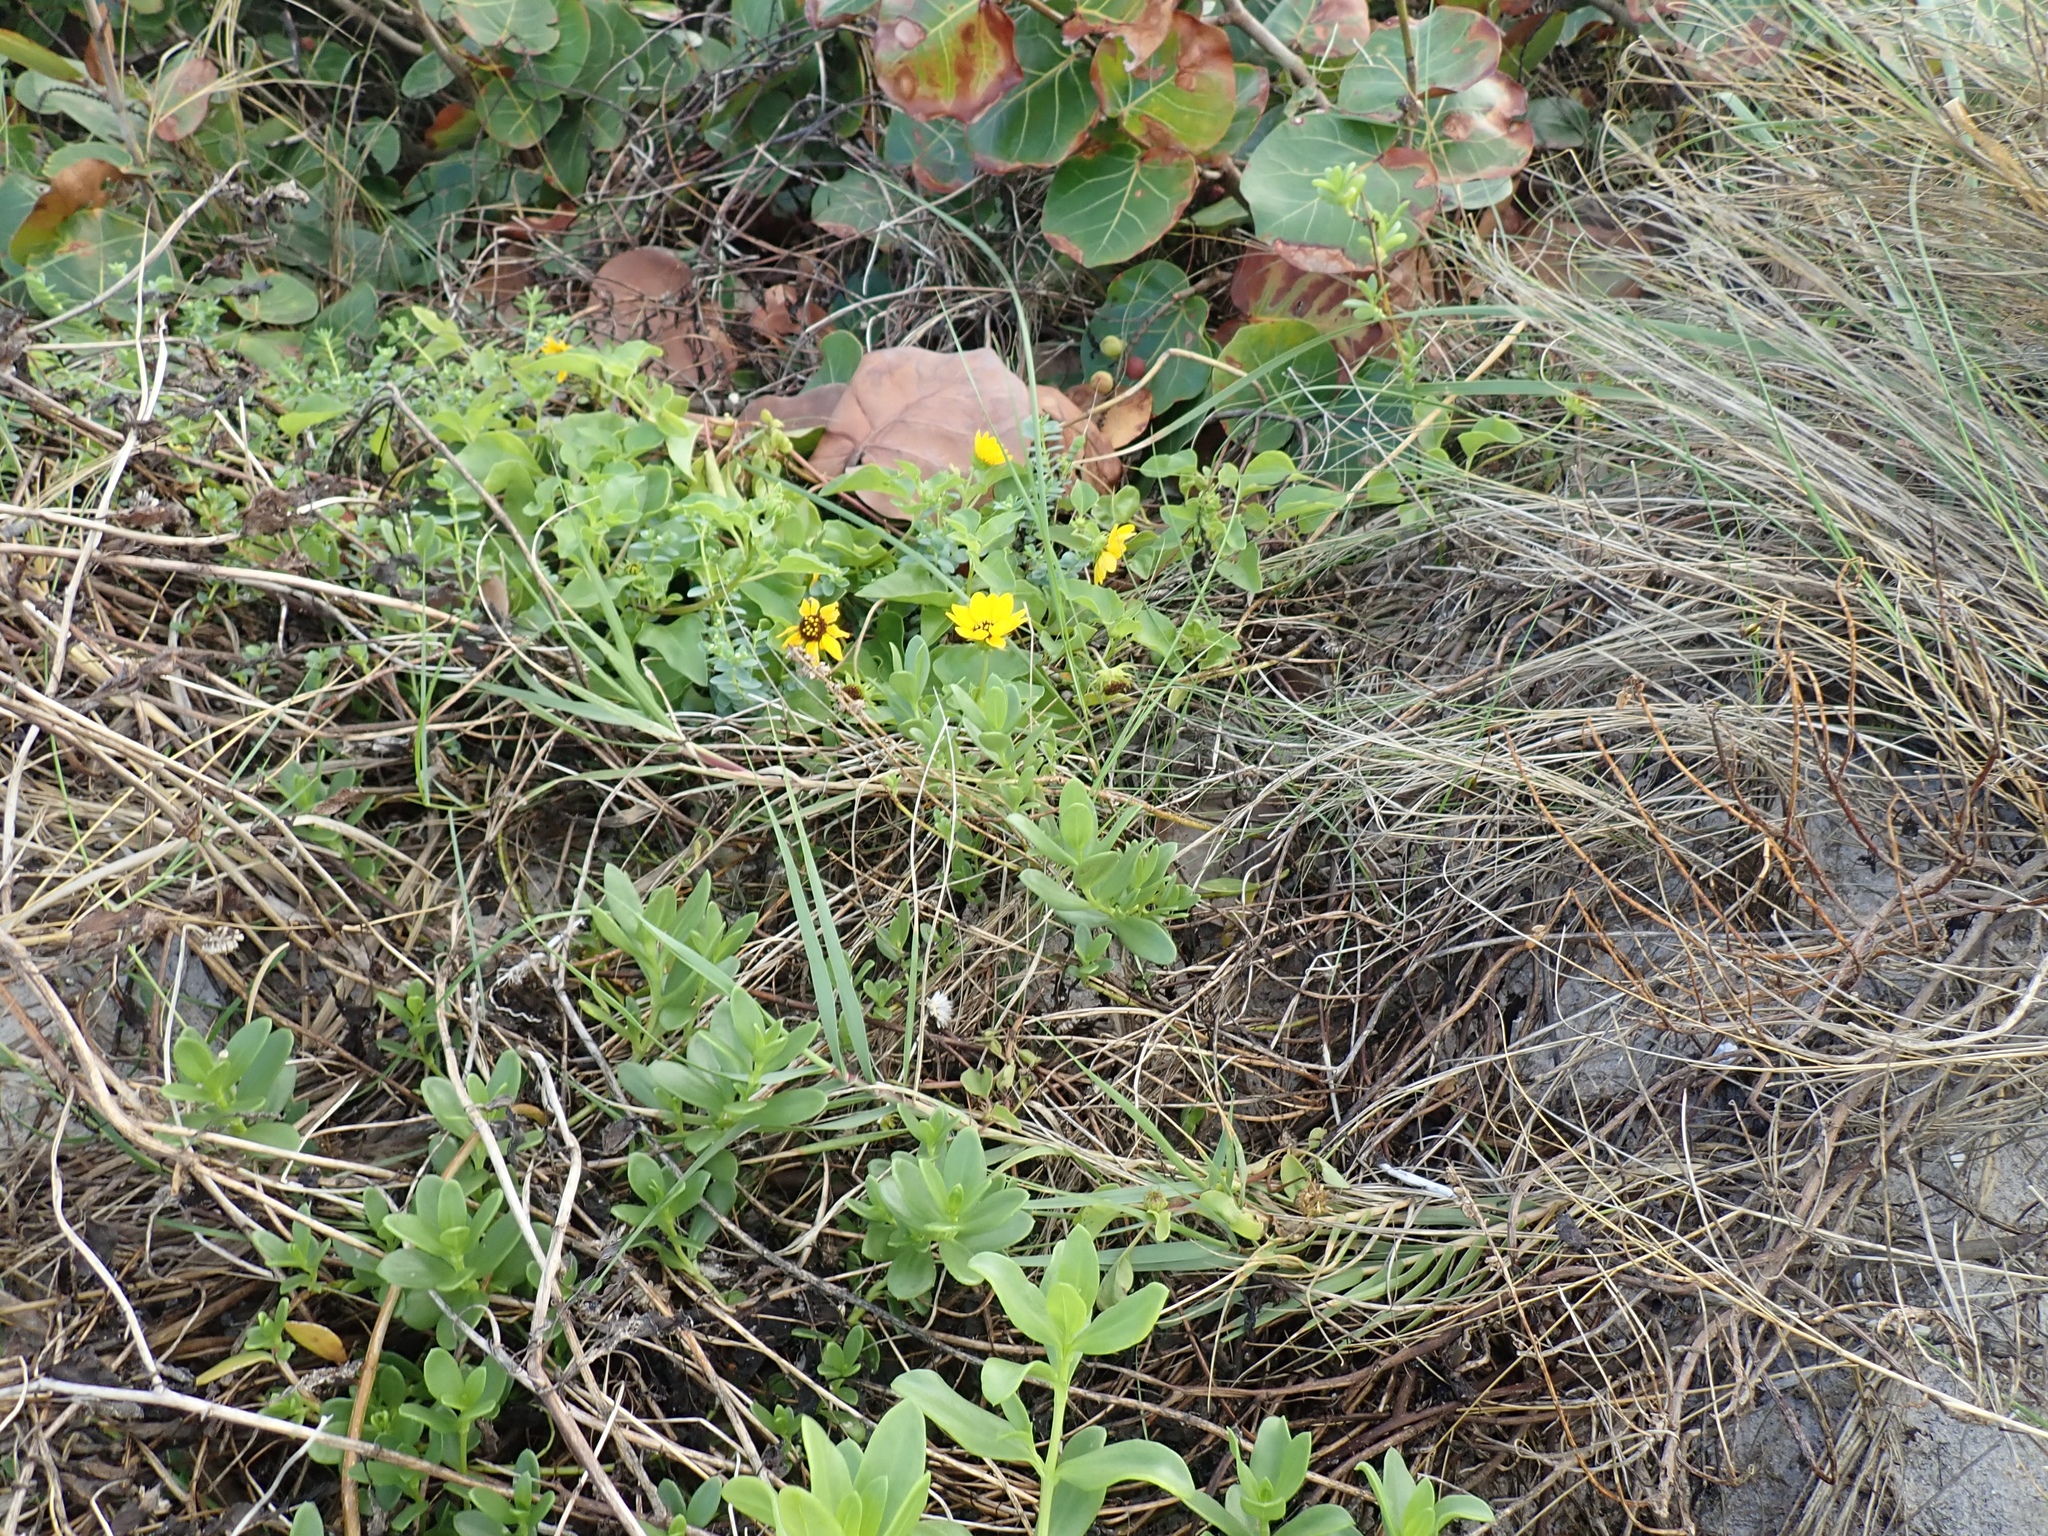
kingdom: Plantae
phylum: Tracheophyta
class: Magnoliopsida
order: Asterales
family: Asteraceae
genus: Helianthus
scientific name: Helianthus debilis
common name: Weak sunflower
